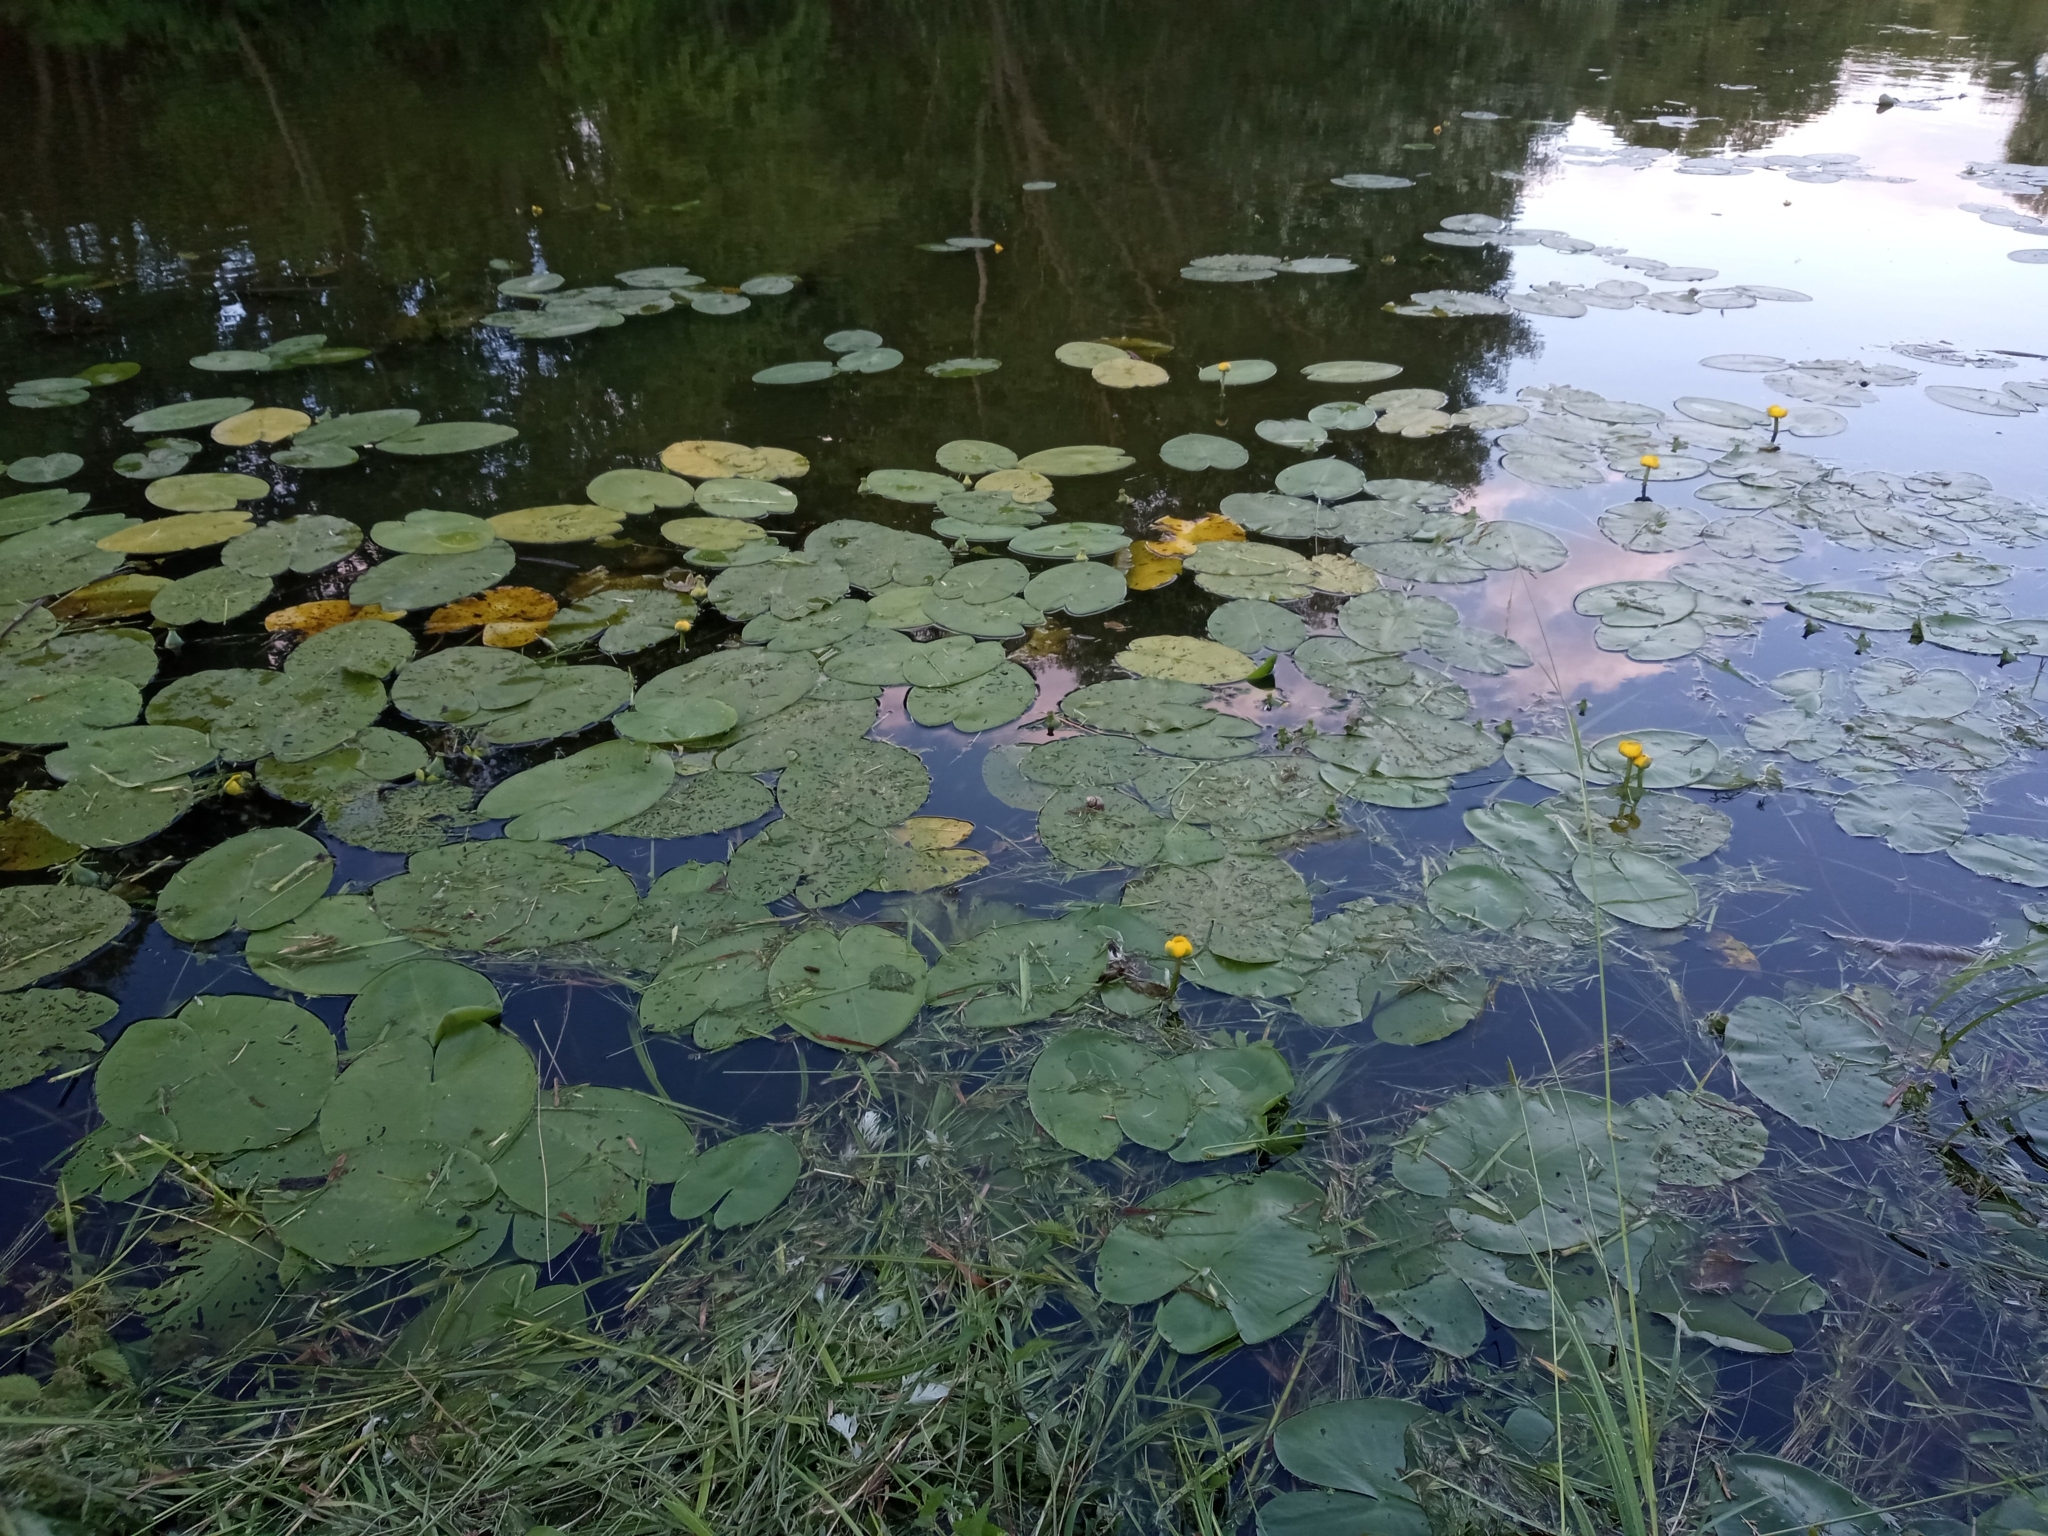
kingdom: Plantae
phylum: Tracheophyta
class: Magnoliopsida
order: Nymphaeales
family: Nymphaeaceae
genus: Nuphar
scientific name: Nuphar lutea
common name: Yellow water-lily
